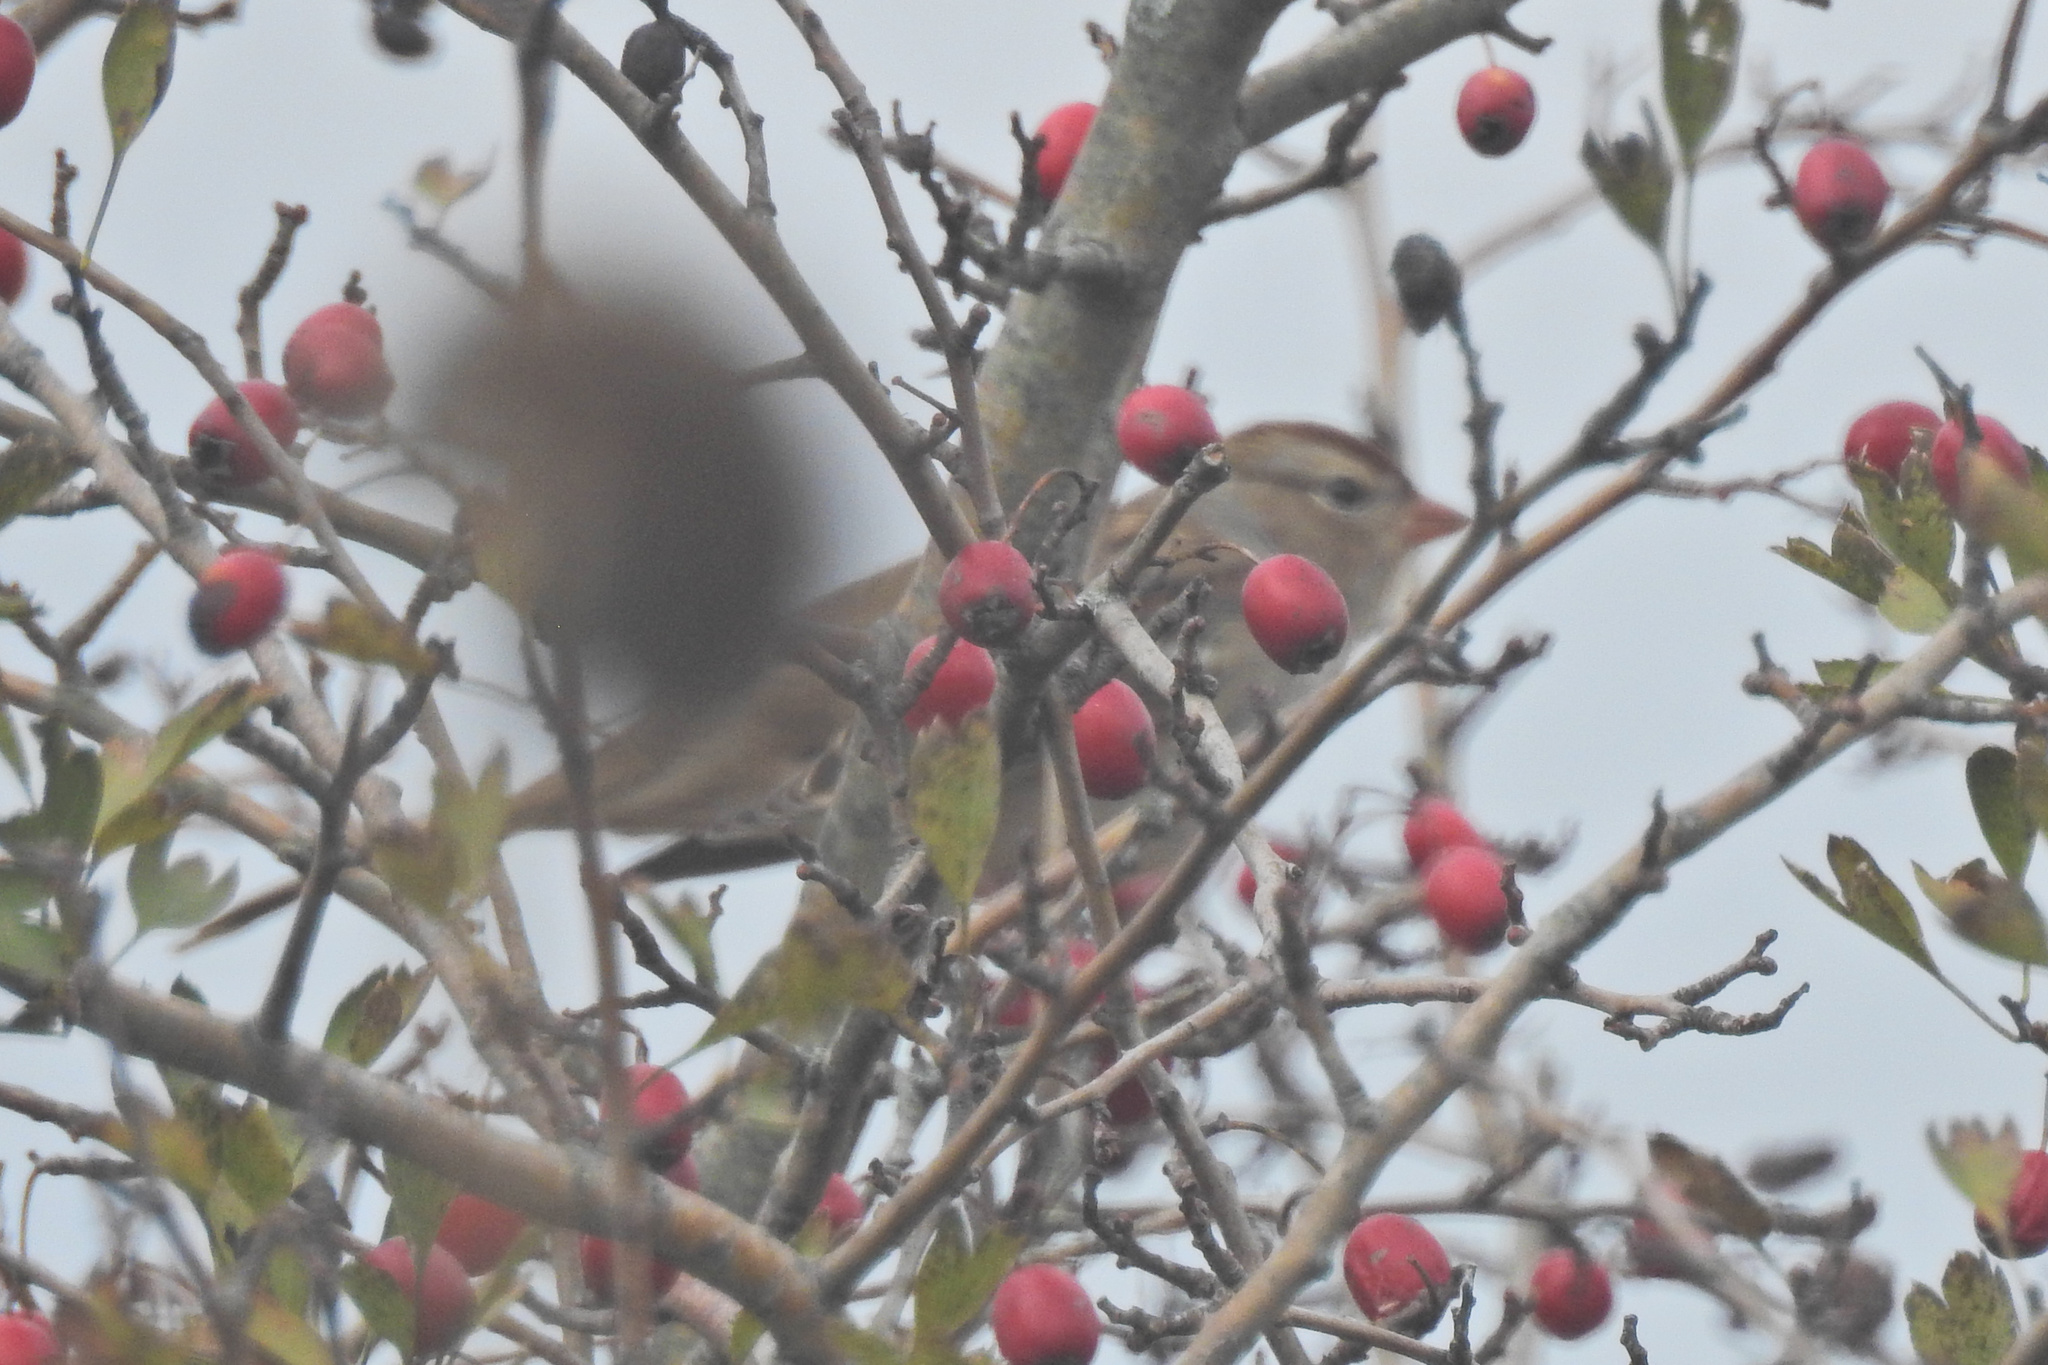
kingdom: Animalia
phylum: Chordata
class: Aves
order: Passeriformes
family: Passerellidae
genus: Zonotrichia
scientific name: Zonotrichia leucophrys
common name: White-crowned sparrow
